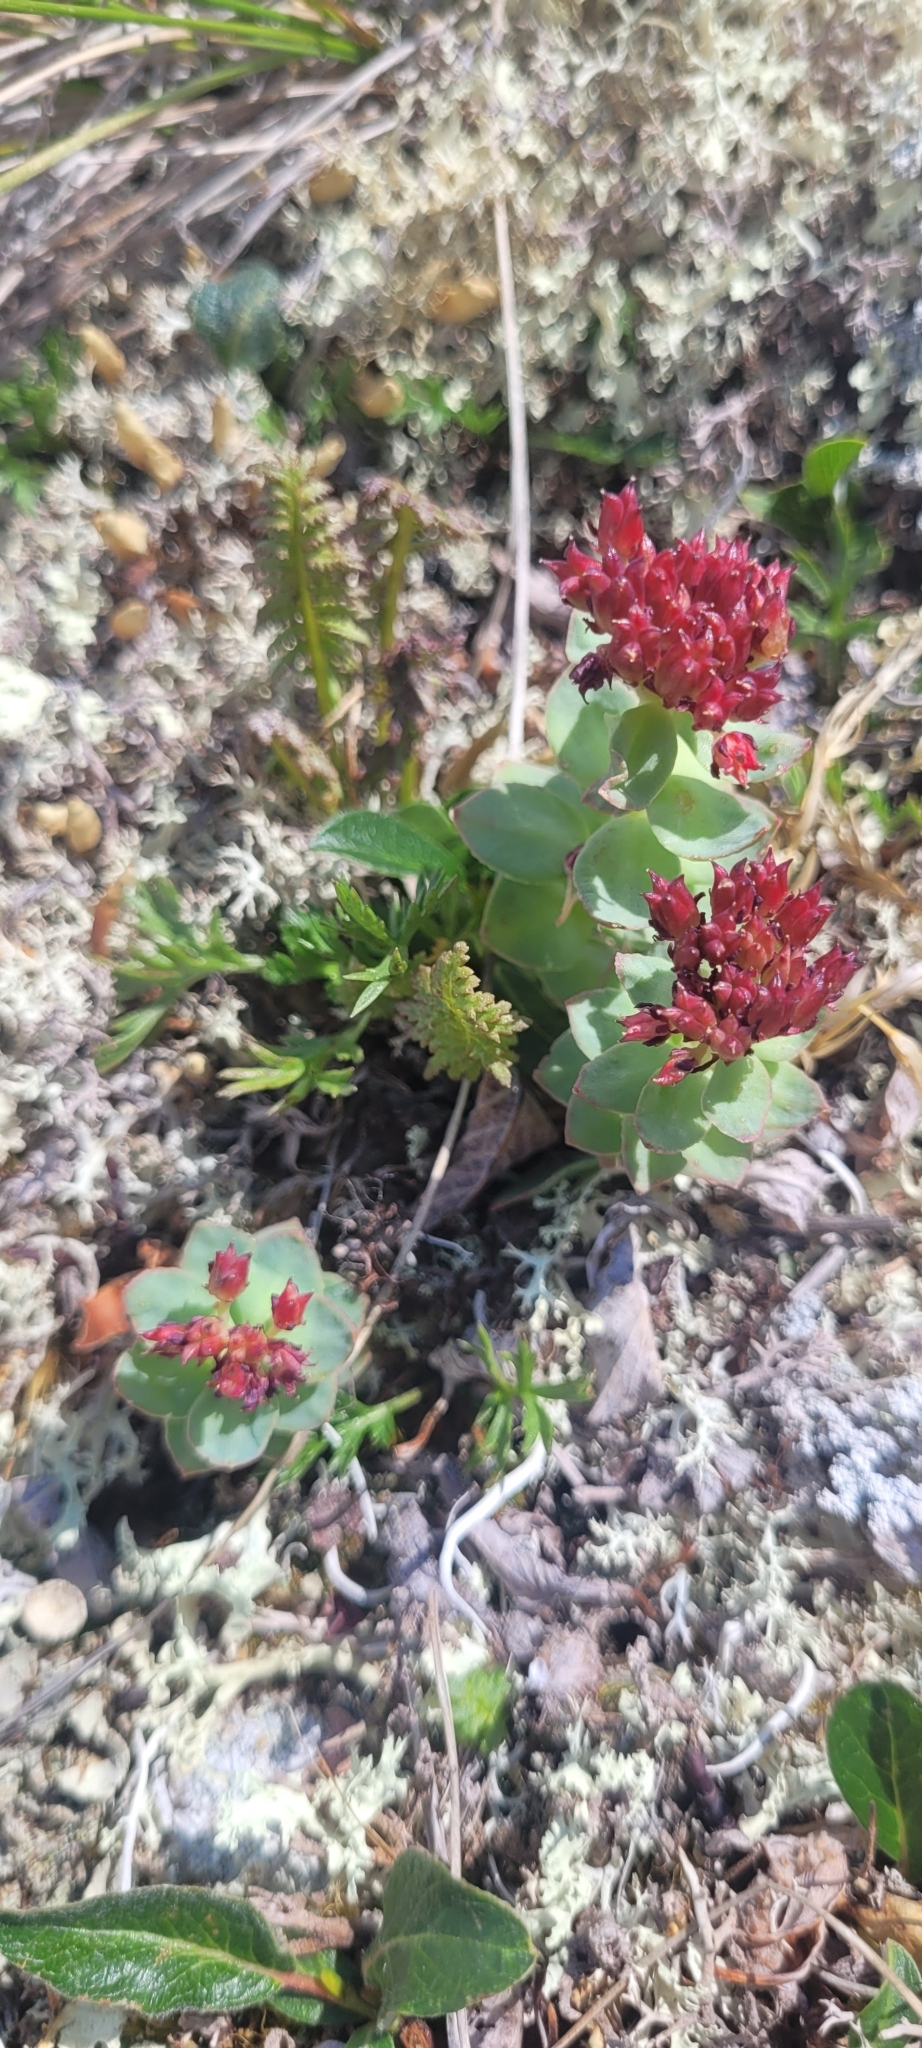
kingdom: Plantae
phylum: Tracheophyta
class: Magnoliopsida
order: Saxifragales
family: Crassulaceae
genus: Rhodiola
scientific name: Rhodiola integrifolia
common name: Western roseroot
